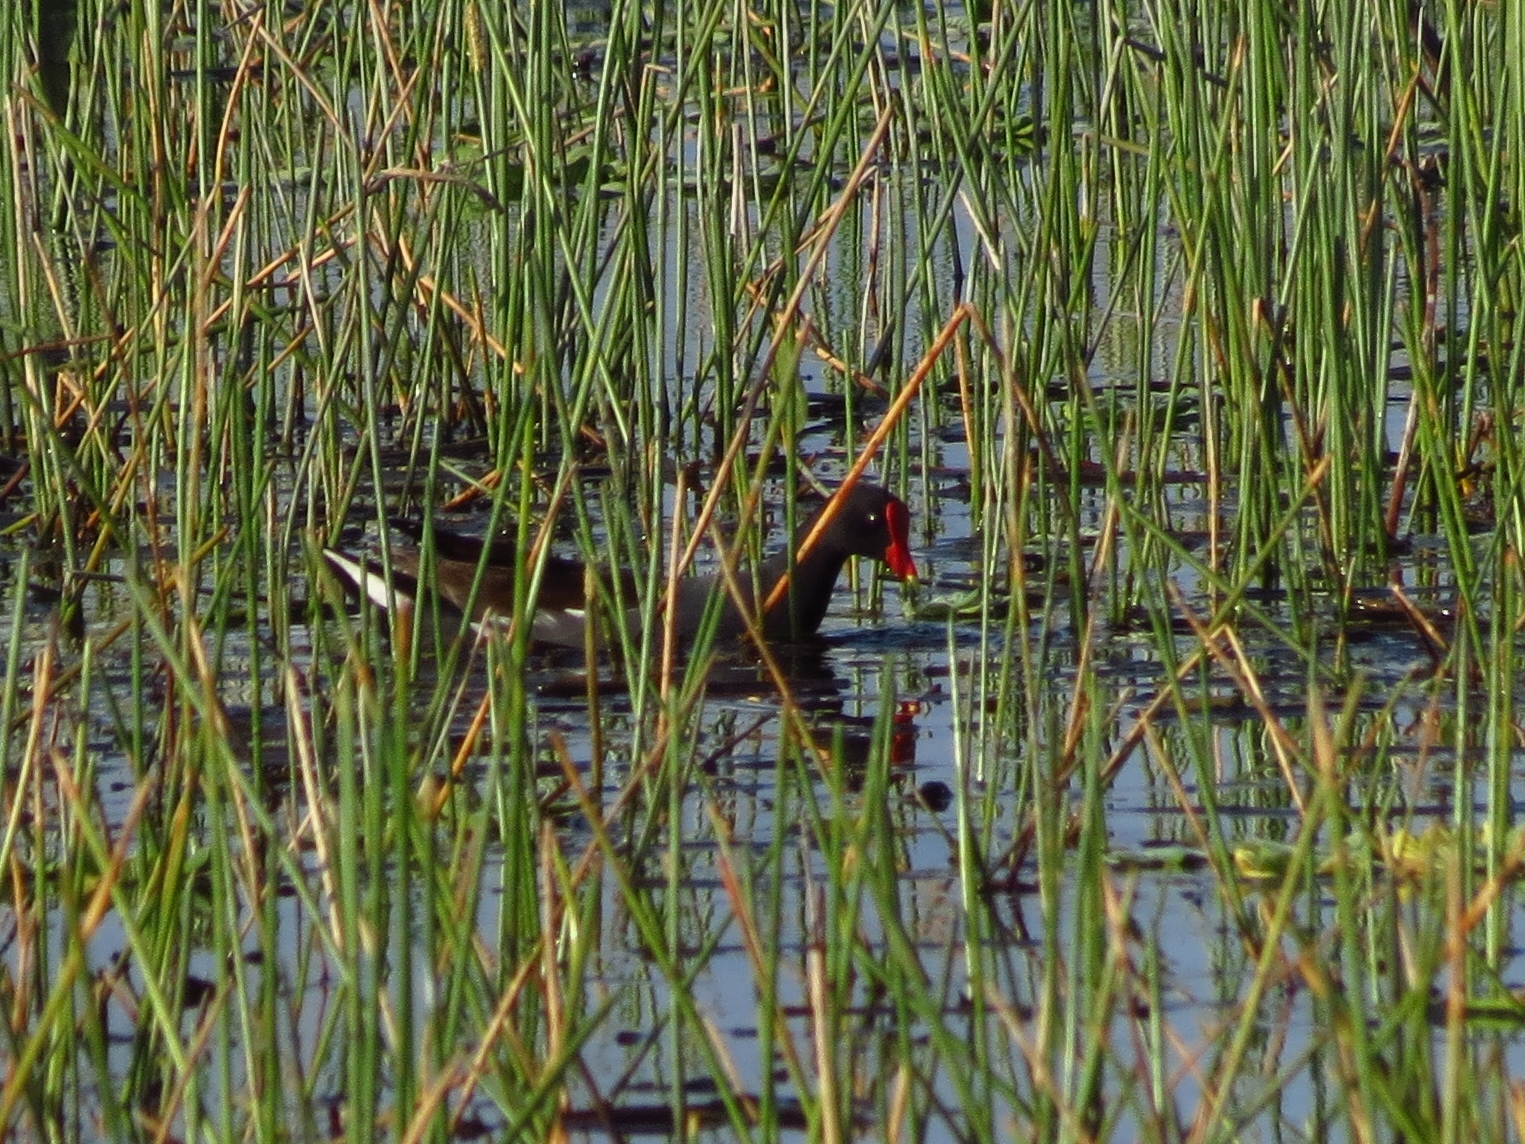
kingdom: Animalia
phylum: Chordata
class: Aves
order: Gruiformes
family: Rallidae
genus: Gallinula
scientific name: Gallinula chloropus
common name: Common moorhen
